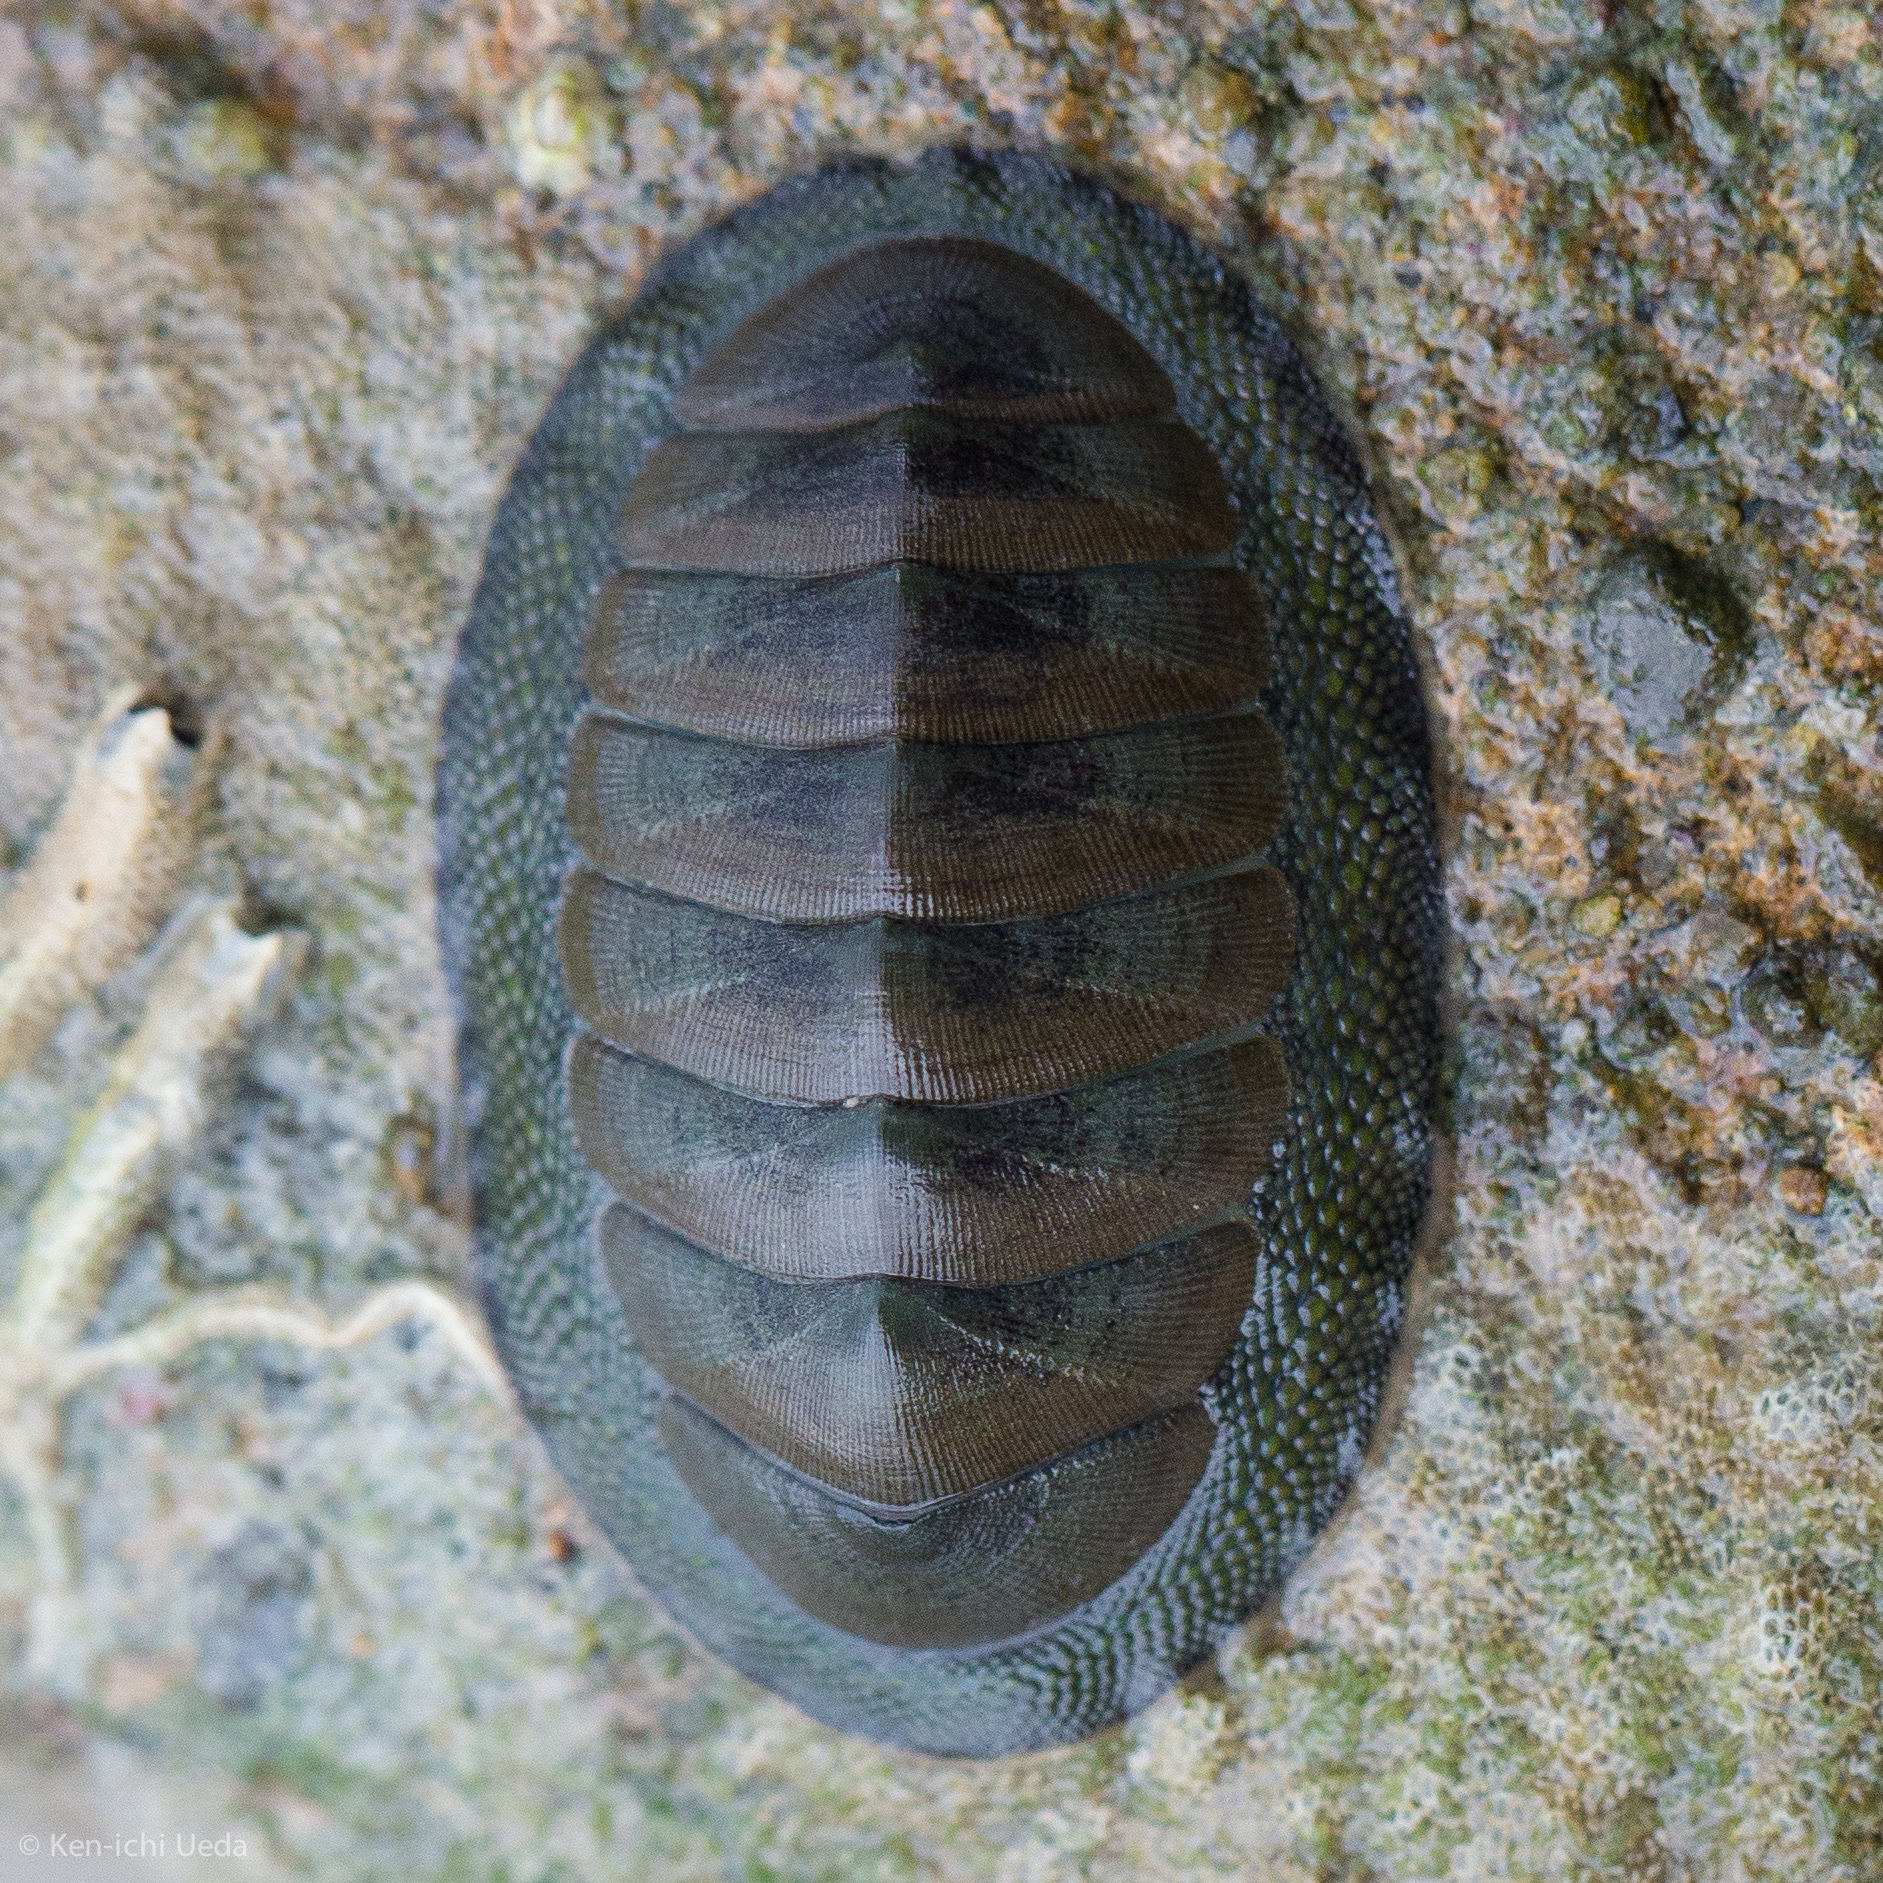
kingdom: Animalia
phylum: Mollusca
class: Polyplacophora
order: Chitonida
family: Chitonidae
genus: Chiton
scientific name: Chiton glaucus
